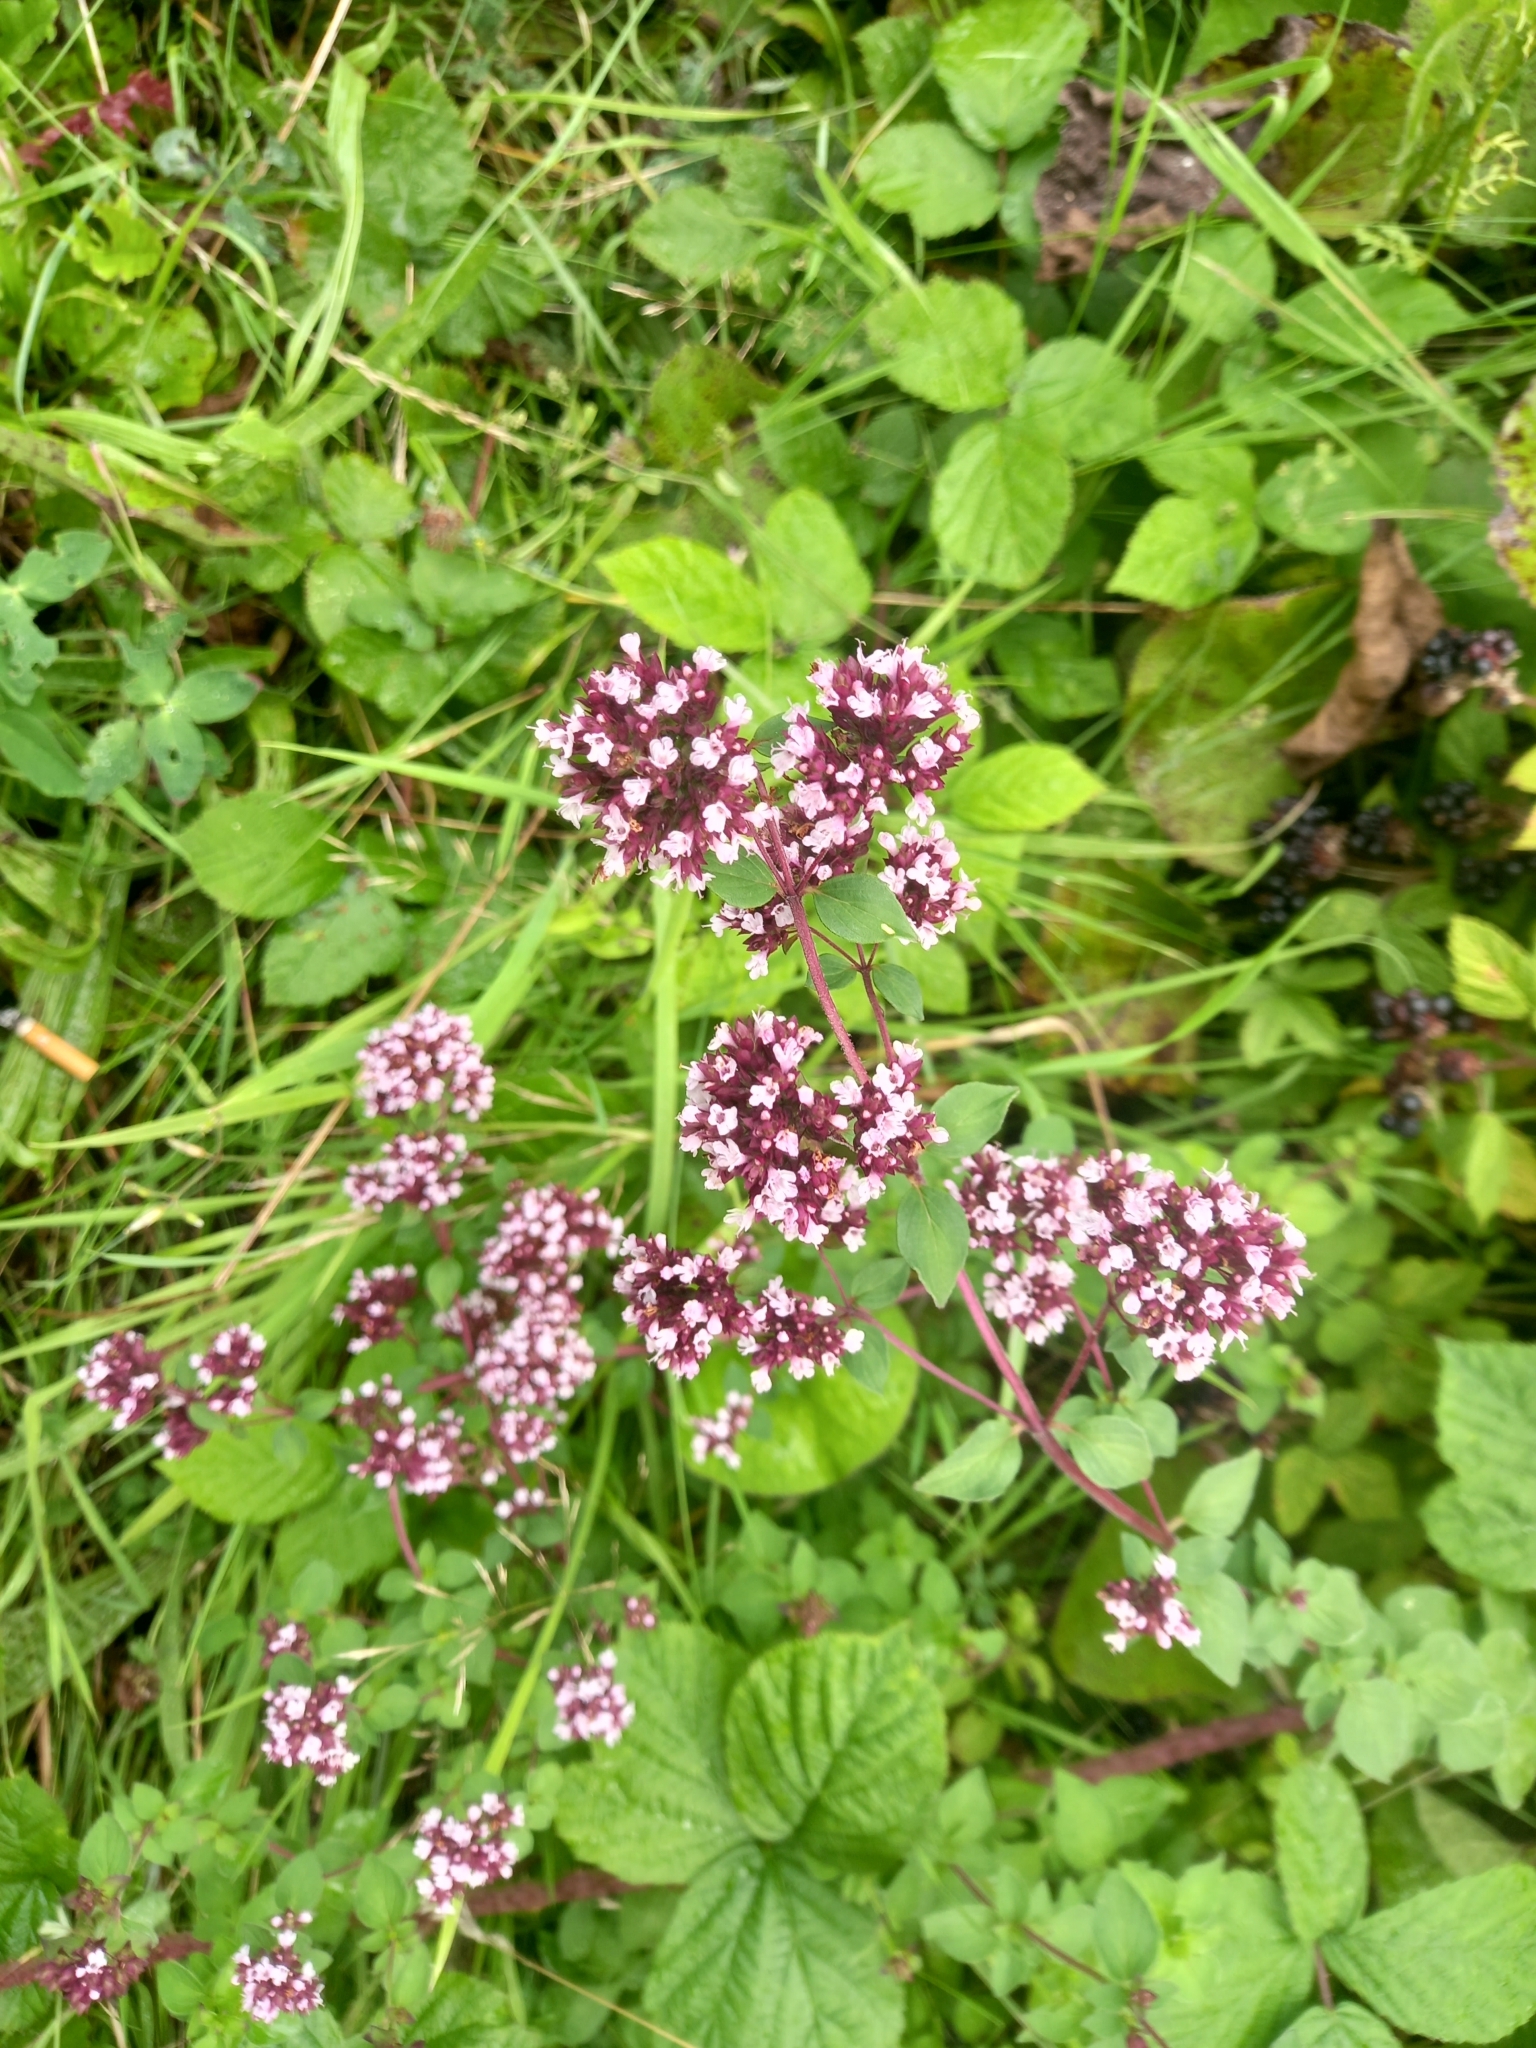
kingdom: Plantae
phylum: Tracheophyta
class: Magnoliopsida
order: Lamiales
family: Lamiaceae
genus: Origanum
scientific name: Origanum vulgare
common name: Wild marjoram
